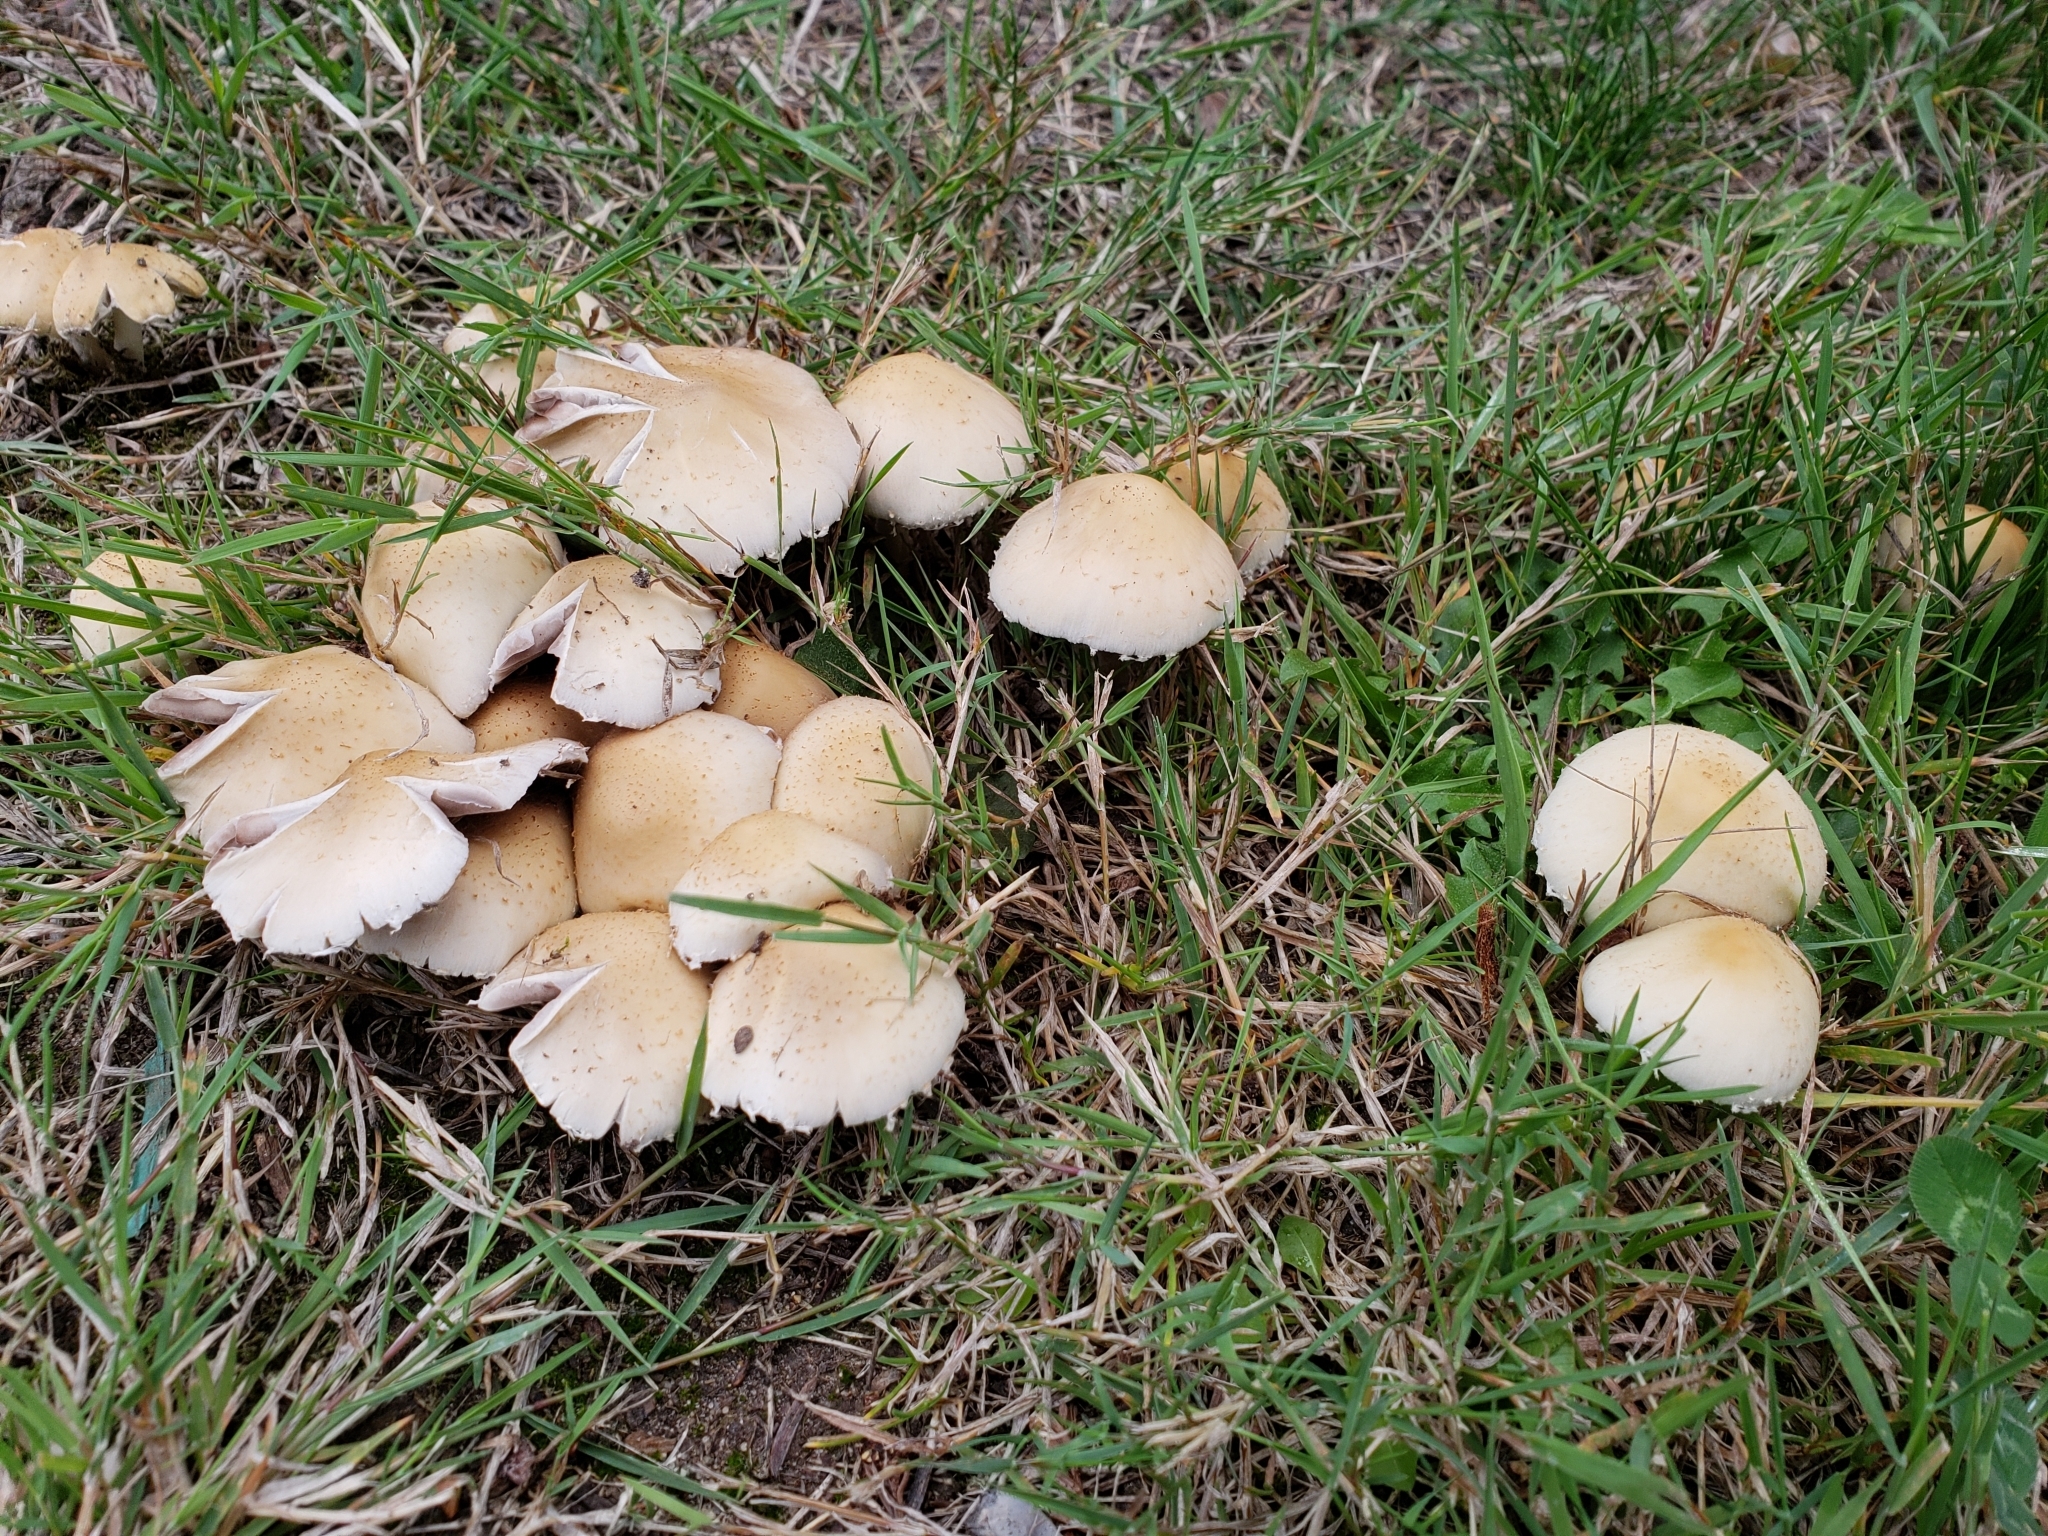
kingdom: Fungi
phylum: Basidiomycota
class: Agaricomycetes
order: Agaricales
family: Psathyrellaceae
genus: Candolleomyces
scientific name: Candolleomyces candolleanus
